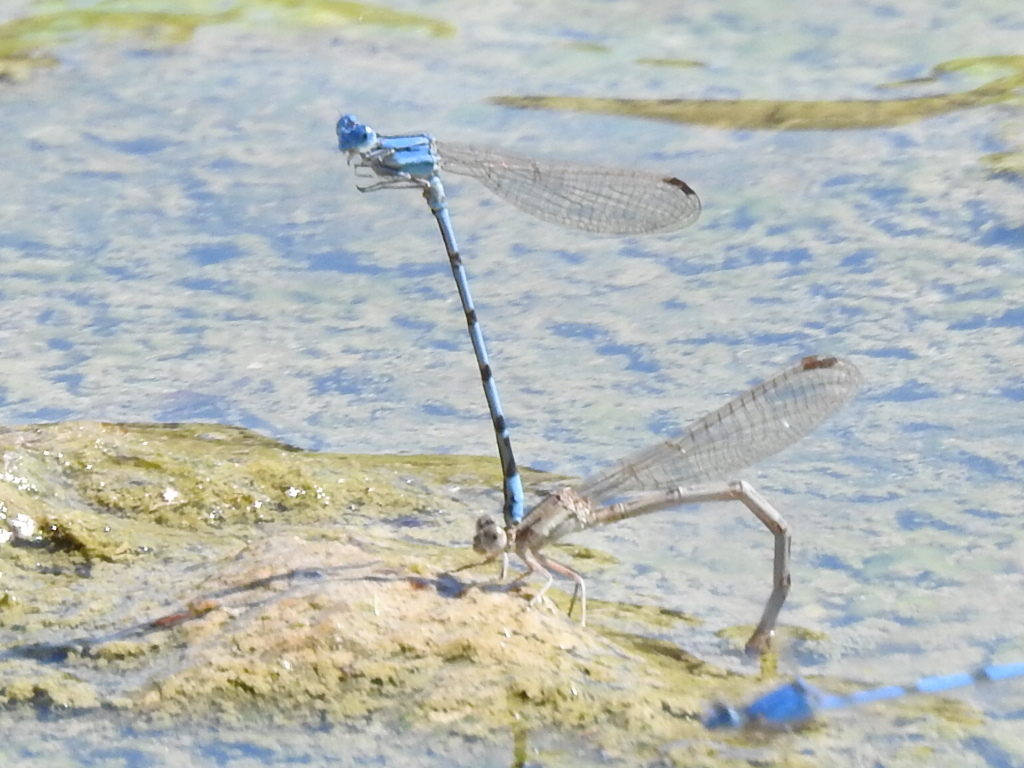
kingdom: Animalia
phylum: Arthropoda
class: Insecta
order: Odonata
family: Coenagrionidae
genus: Argia
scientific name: Argia nahuana
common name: Aztec dancer
